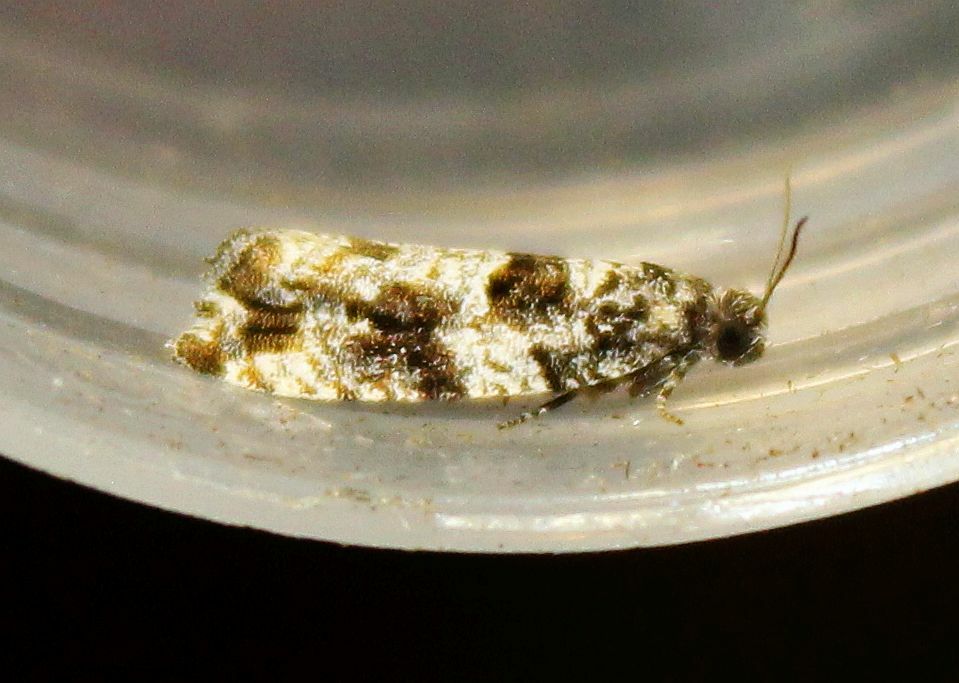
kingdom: Animalia
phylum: Arthropoda
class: Insecta
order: Lepidoptera
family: Tortricidae
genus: Gypsonoma
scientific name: Gypsonoma oppressana
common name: Poplar shoot
